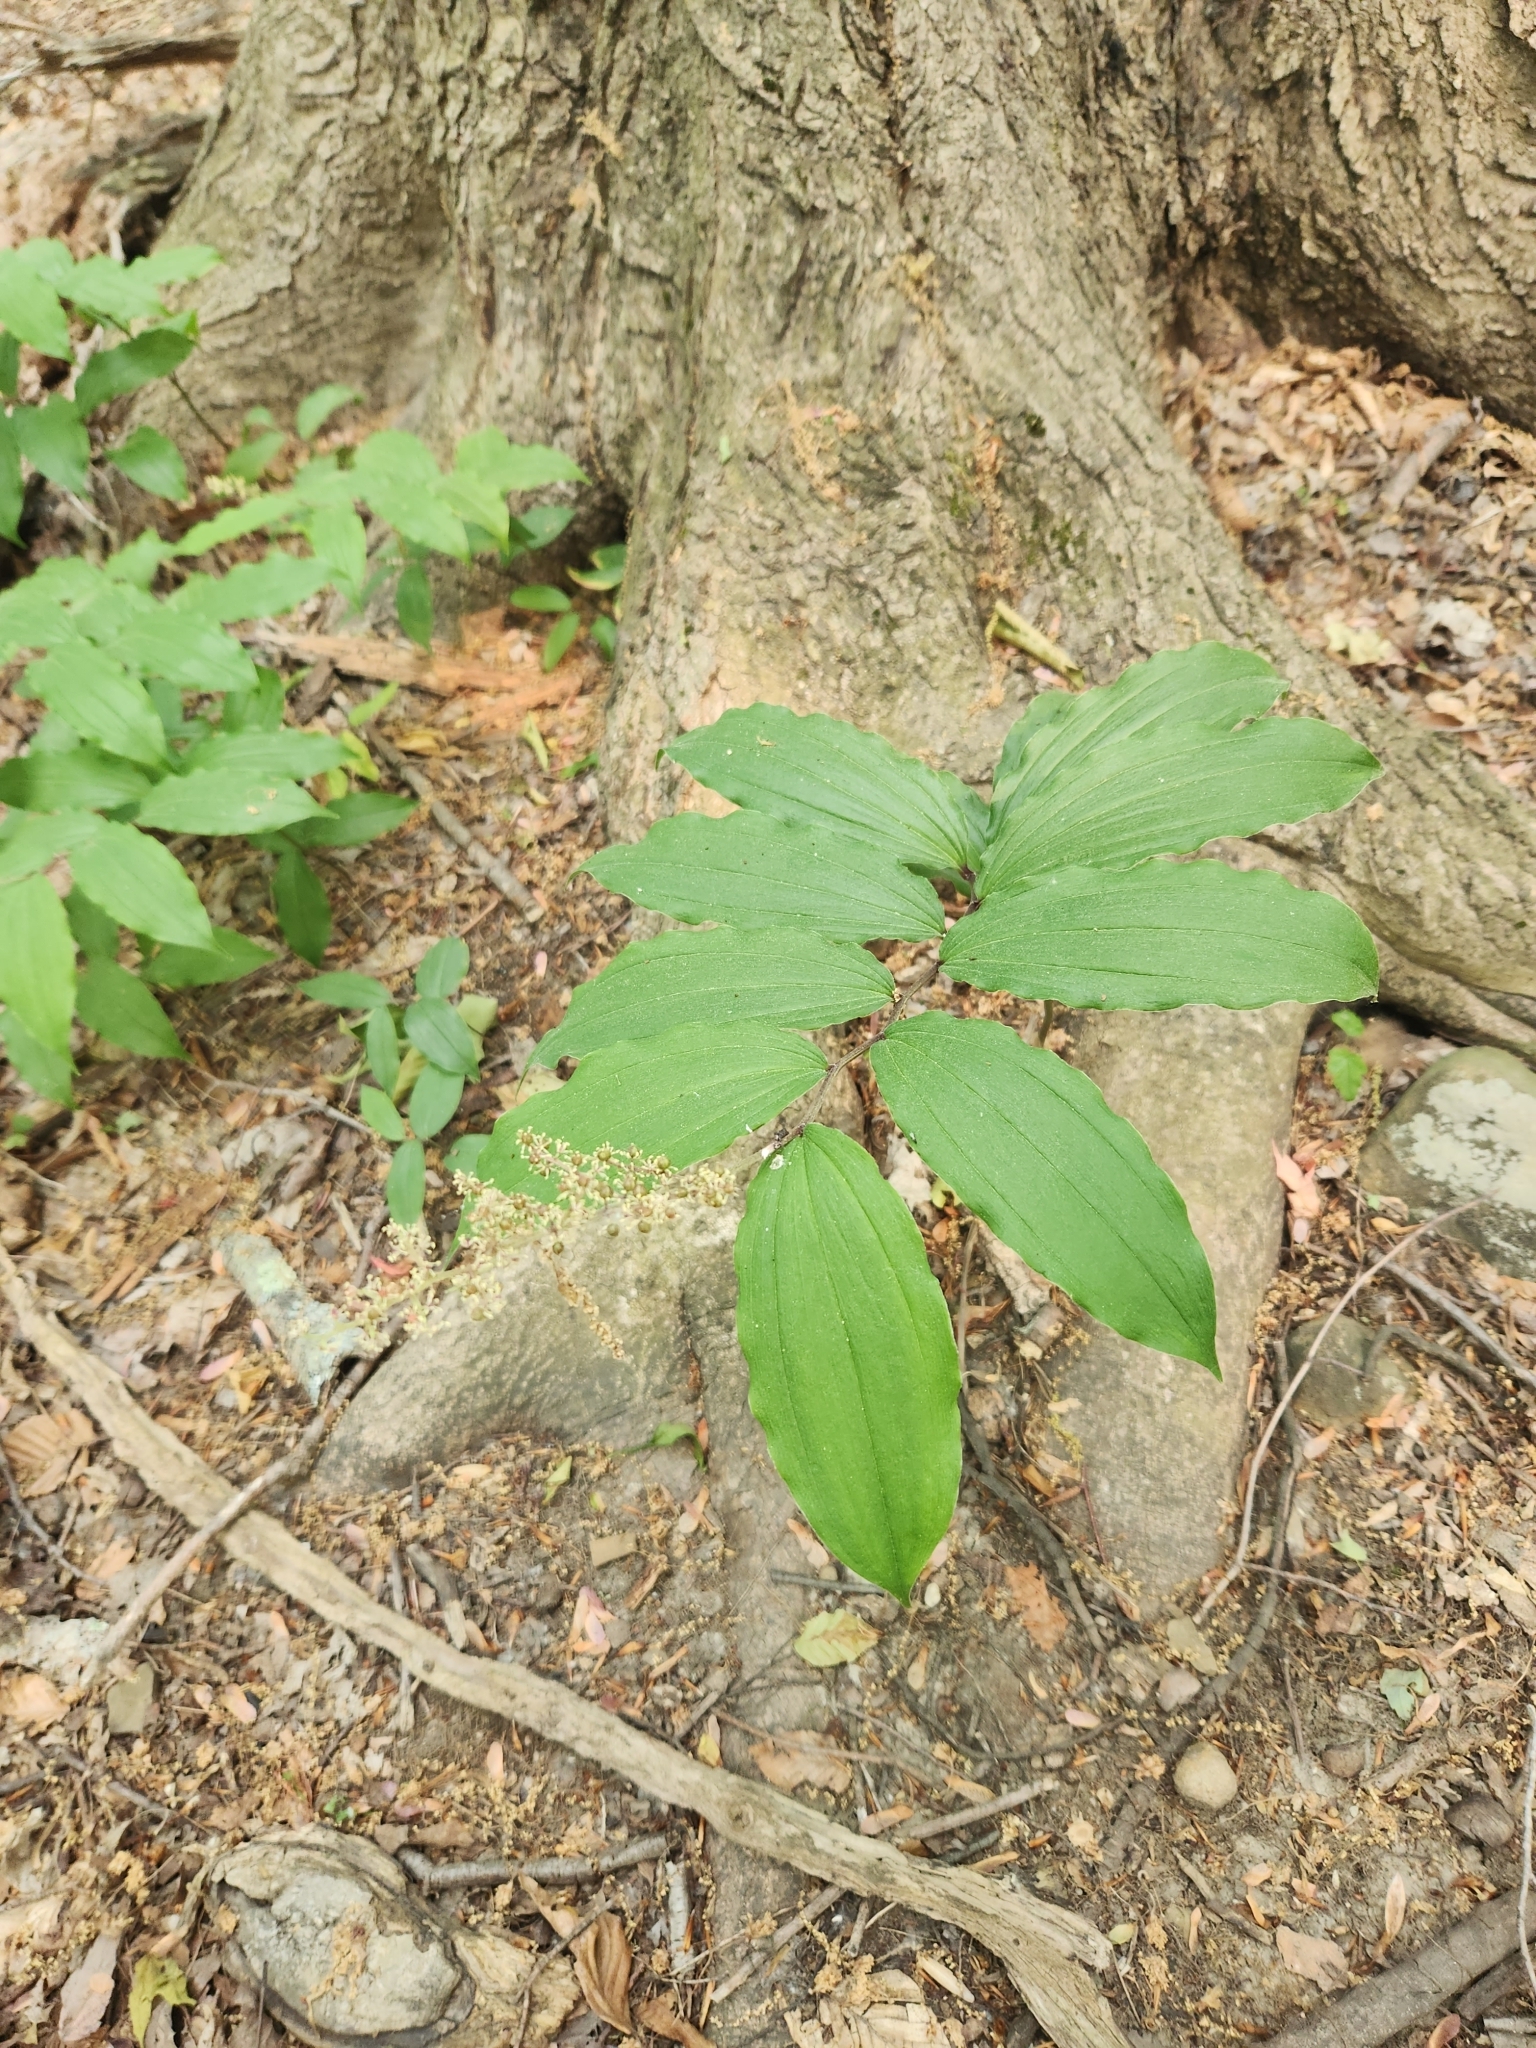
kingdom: Plantae
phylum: Tracheophyta
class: Liliopsida
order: Asparagales
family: Asparagaceae
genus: Maianthemum
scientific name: Maianthemum racemosum
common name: False spikenard
